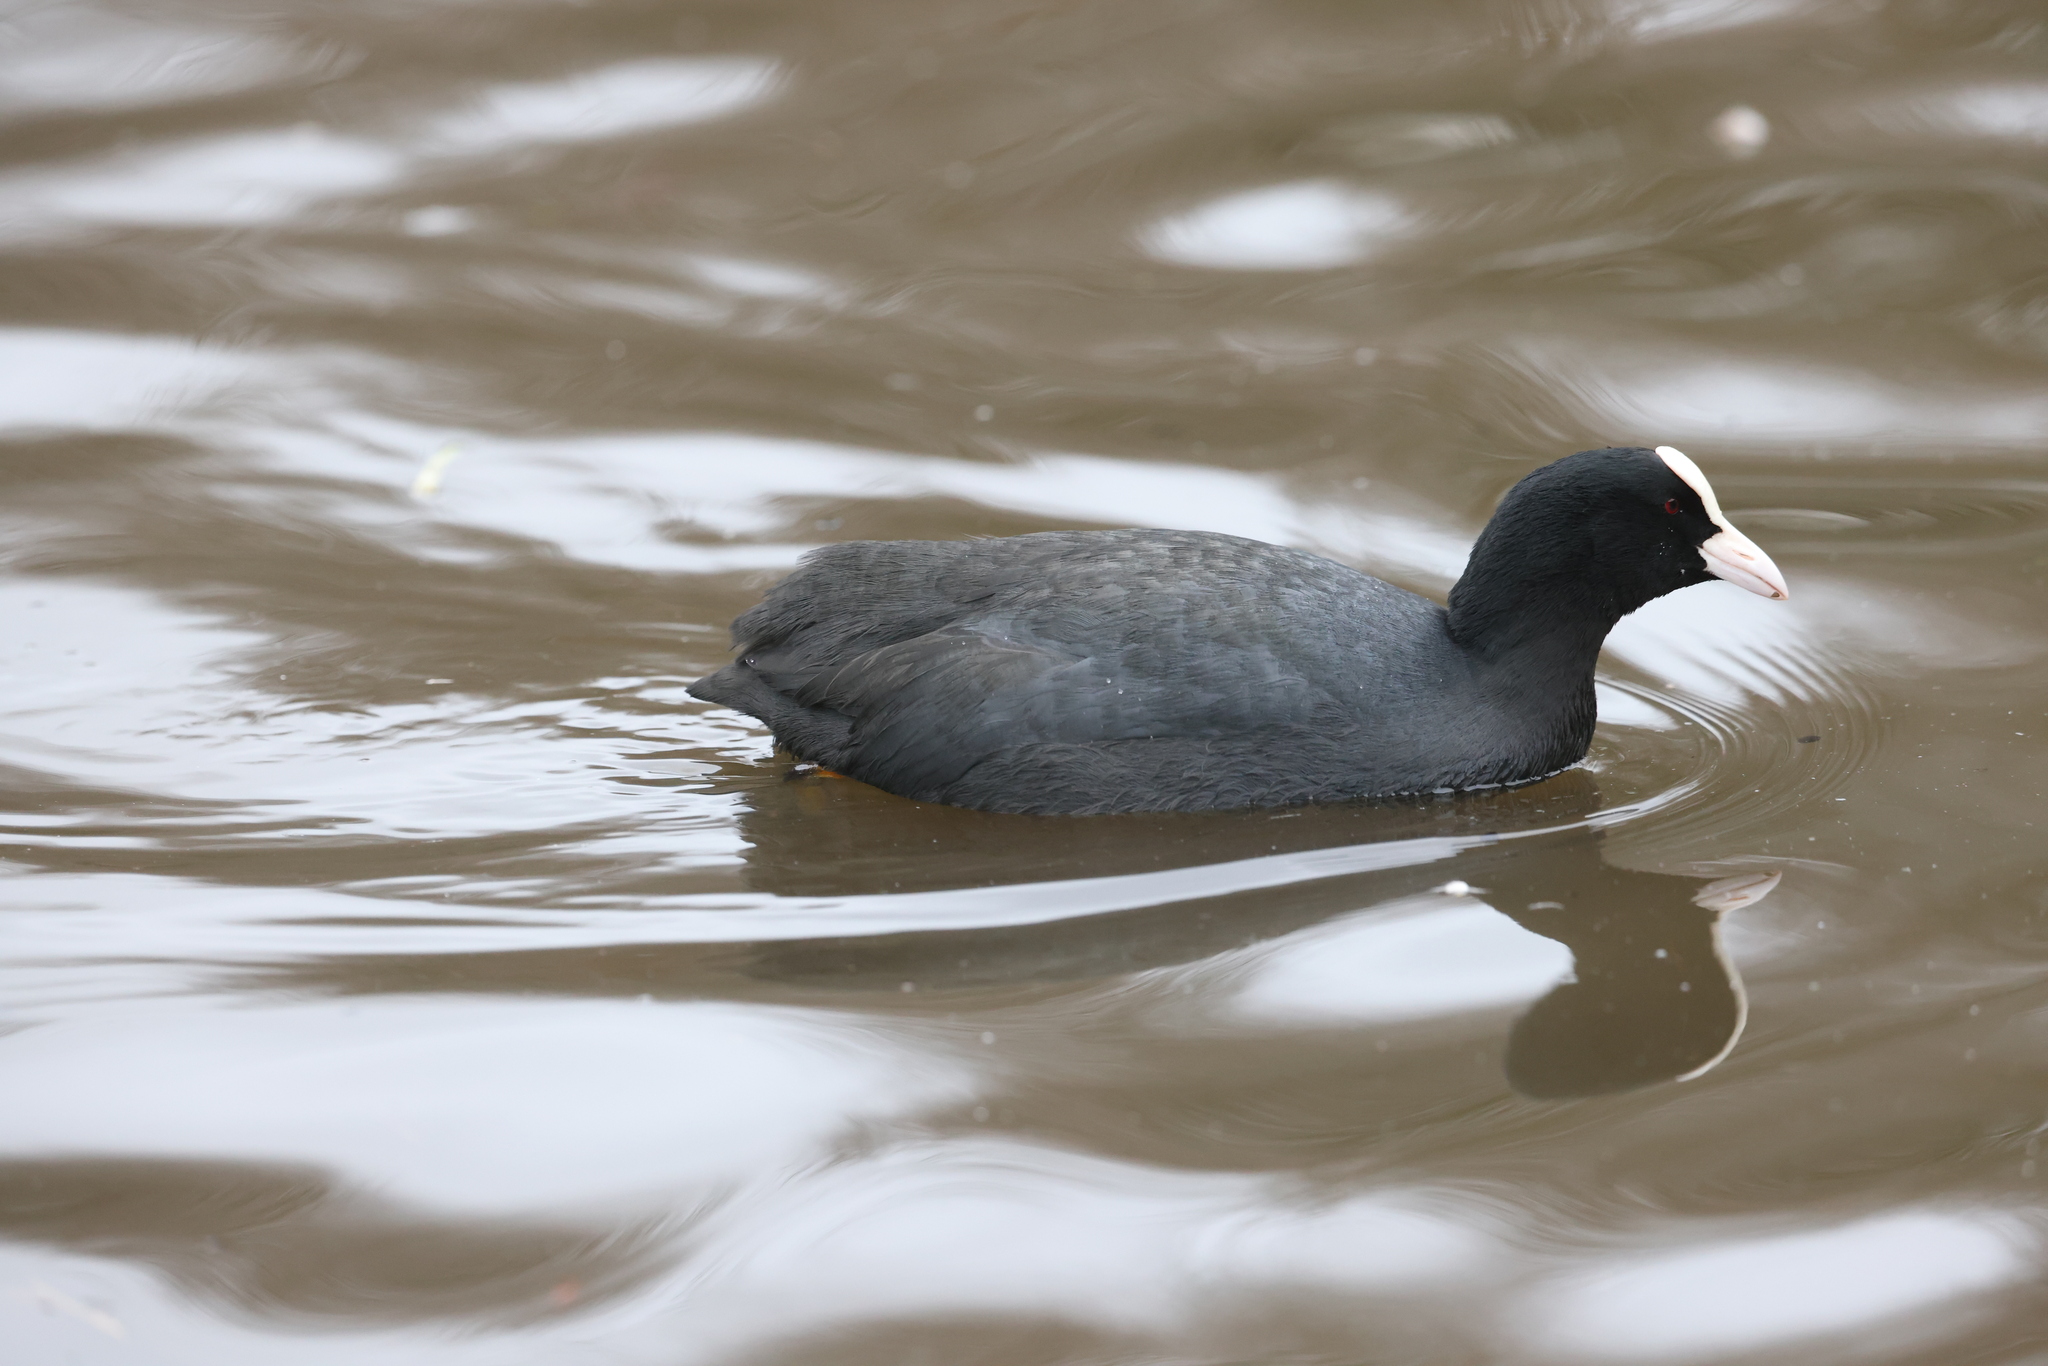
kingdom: Animalia
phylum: Chordata
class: Aves
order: Gruiformes
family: Rallidae
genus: Fulica
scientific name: Fulica atra
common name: Eurasian coot
